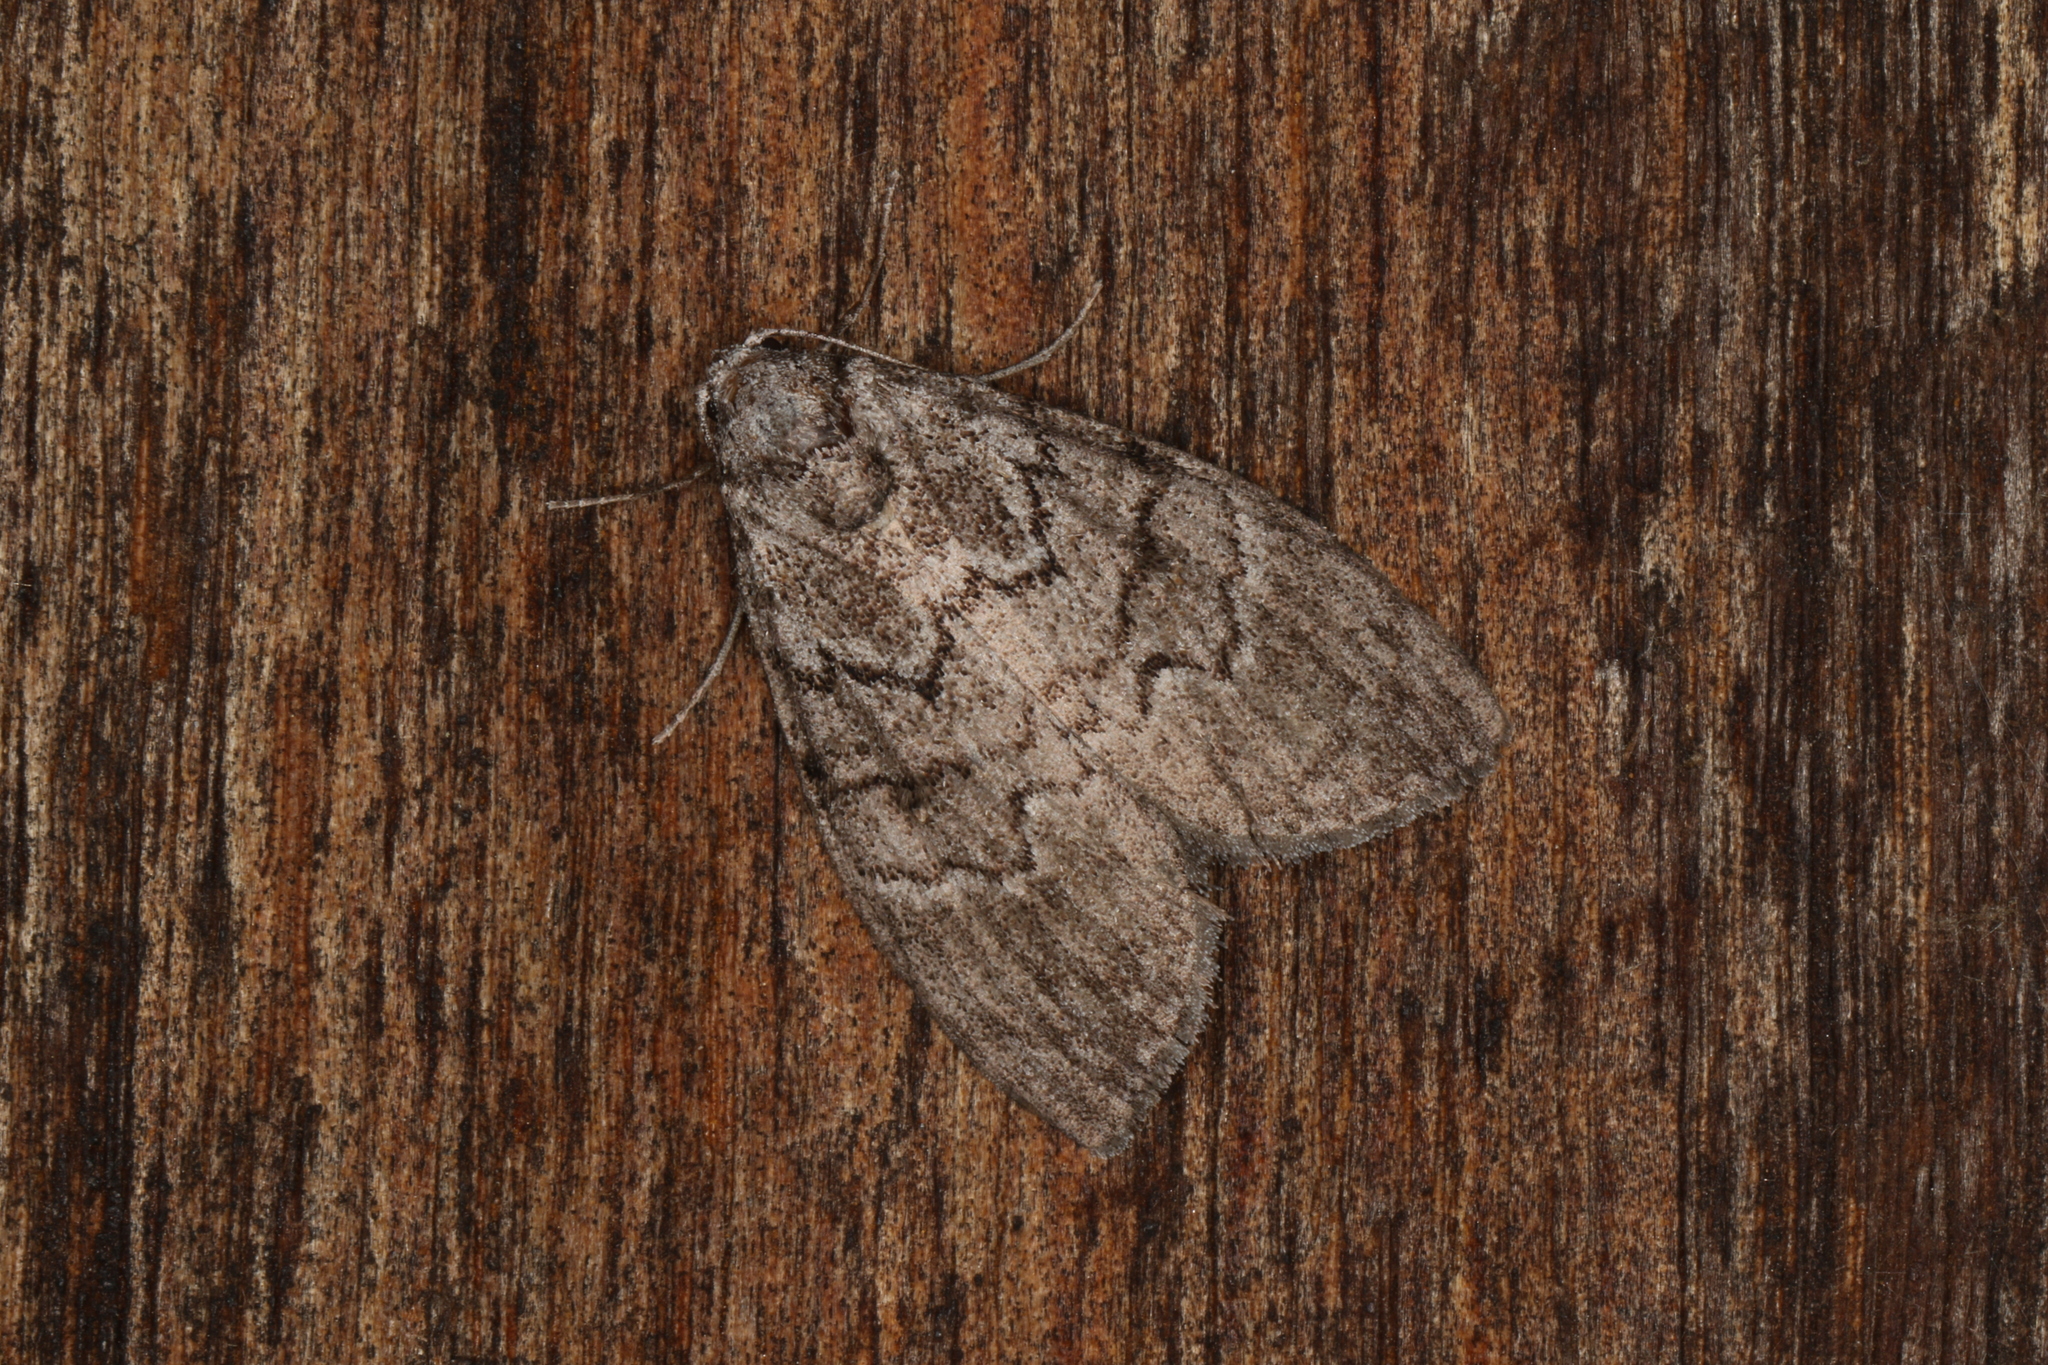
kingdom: Animalia
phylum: Arthropoda
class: Insecta
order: Lepidoptera
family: Nolidae
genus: Uraba
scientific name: Uraba lugens
